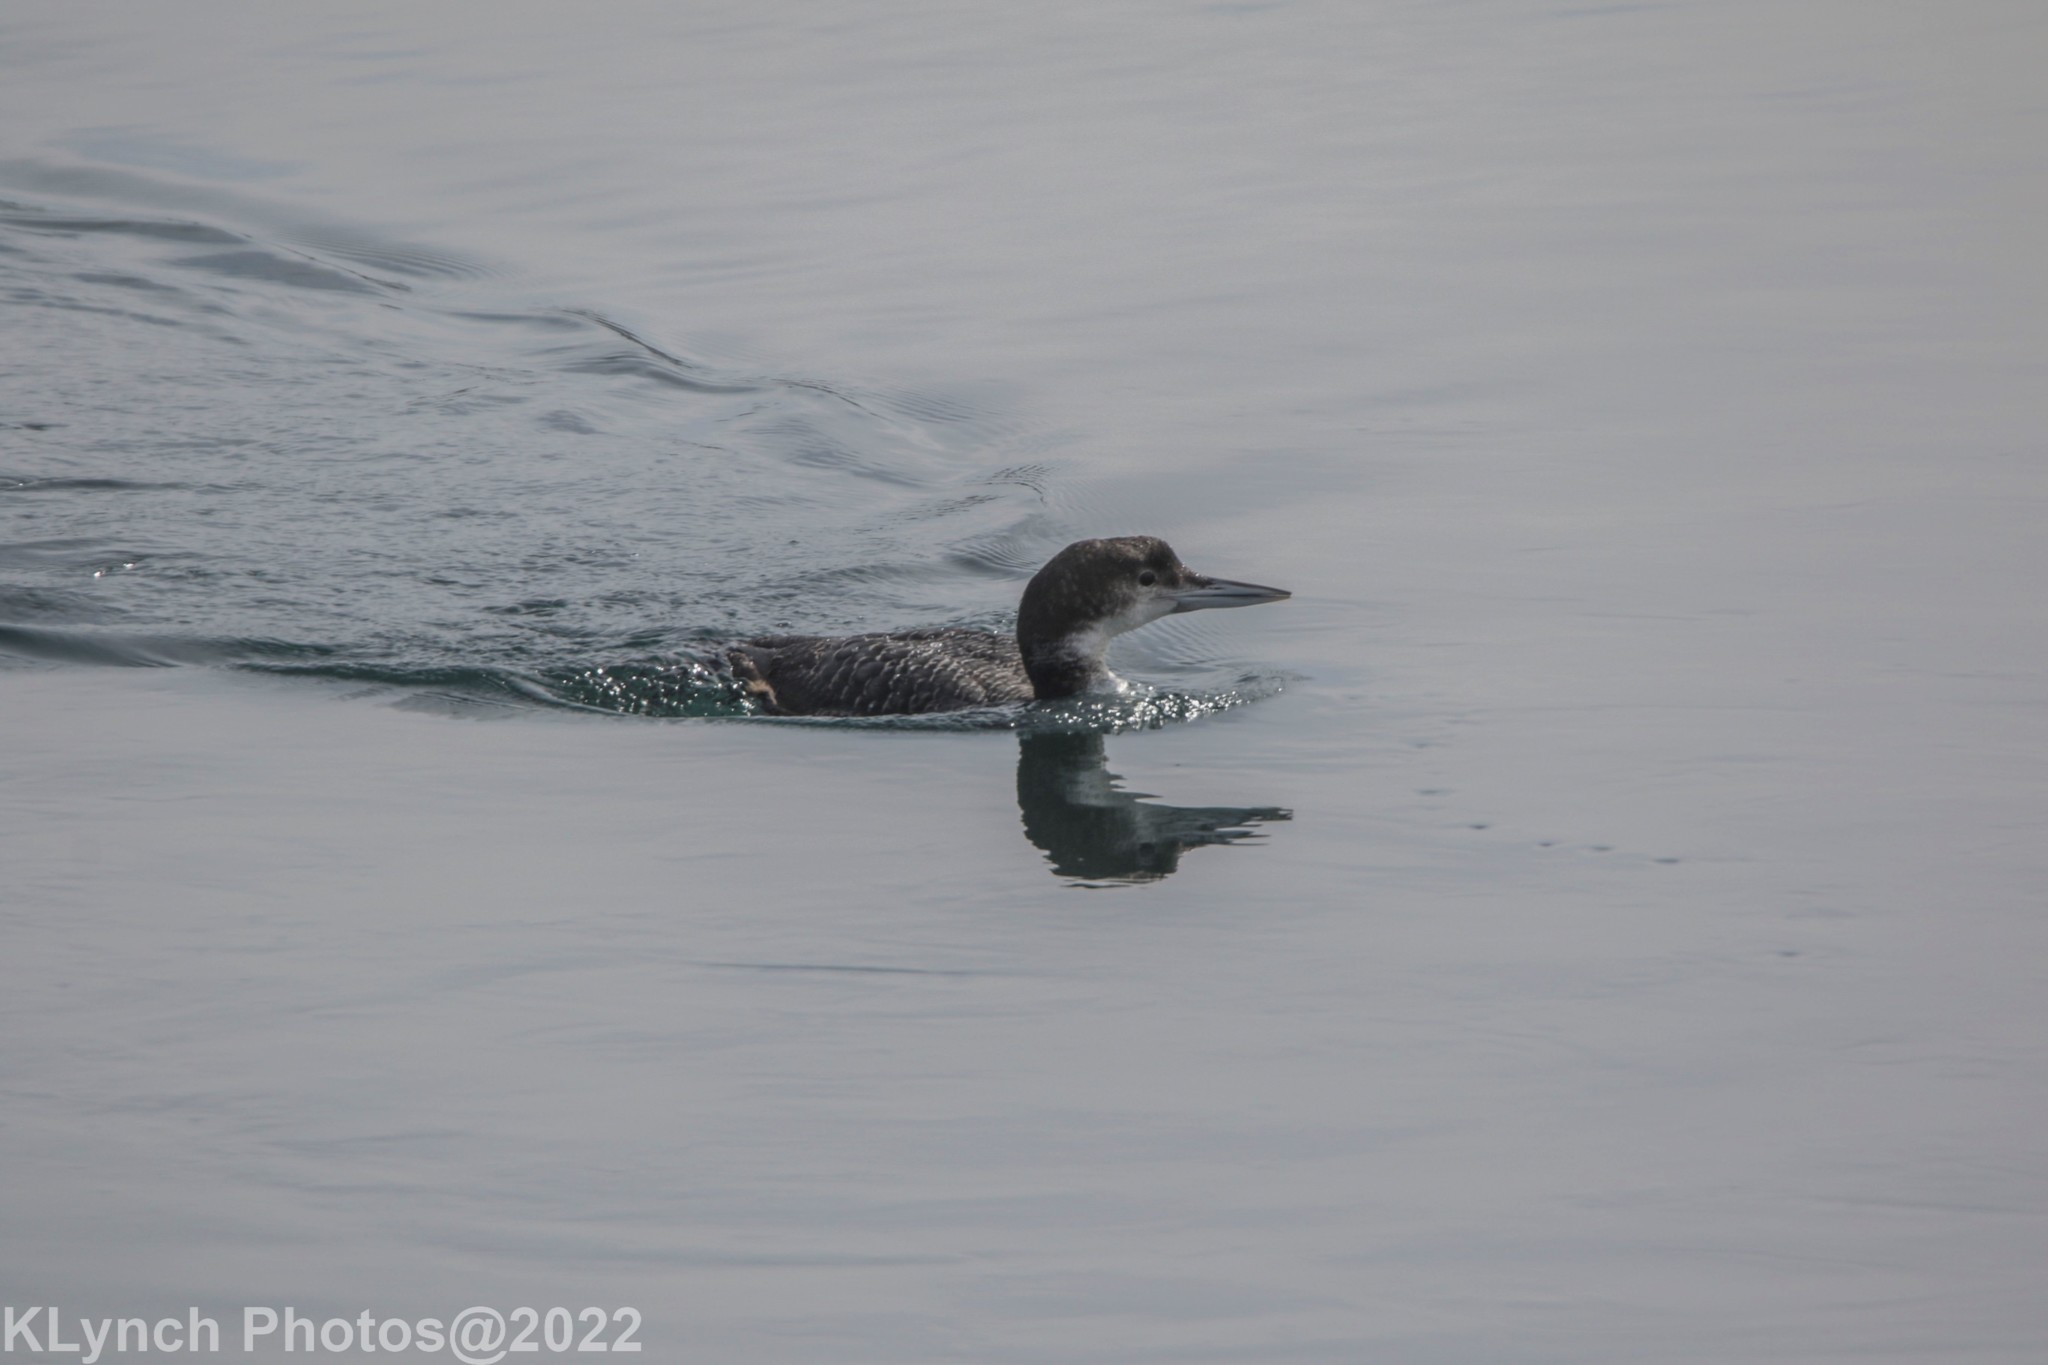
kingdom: Animalia
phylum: Chordata
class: Aves
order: Gaviiformes
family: Gaviidae
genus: Gavia
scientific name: Gavia immer
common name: Common loon
